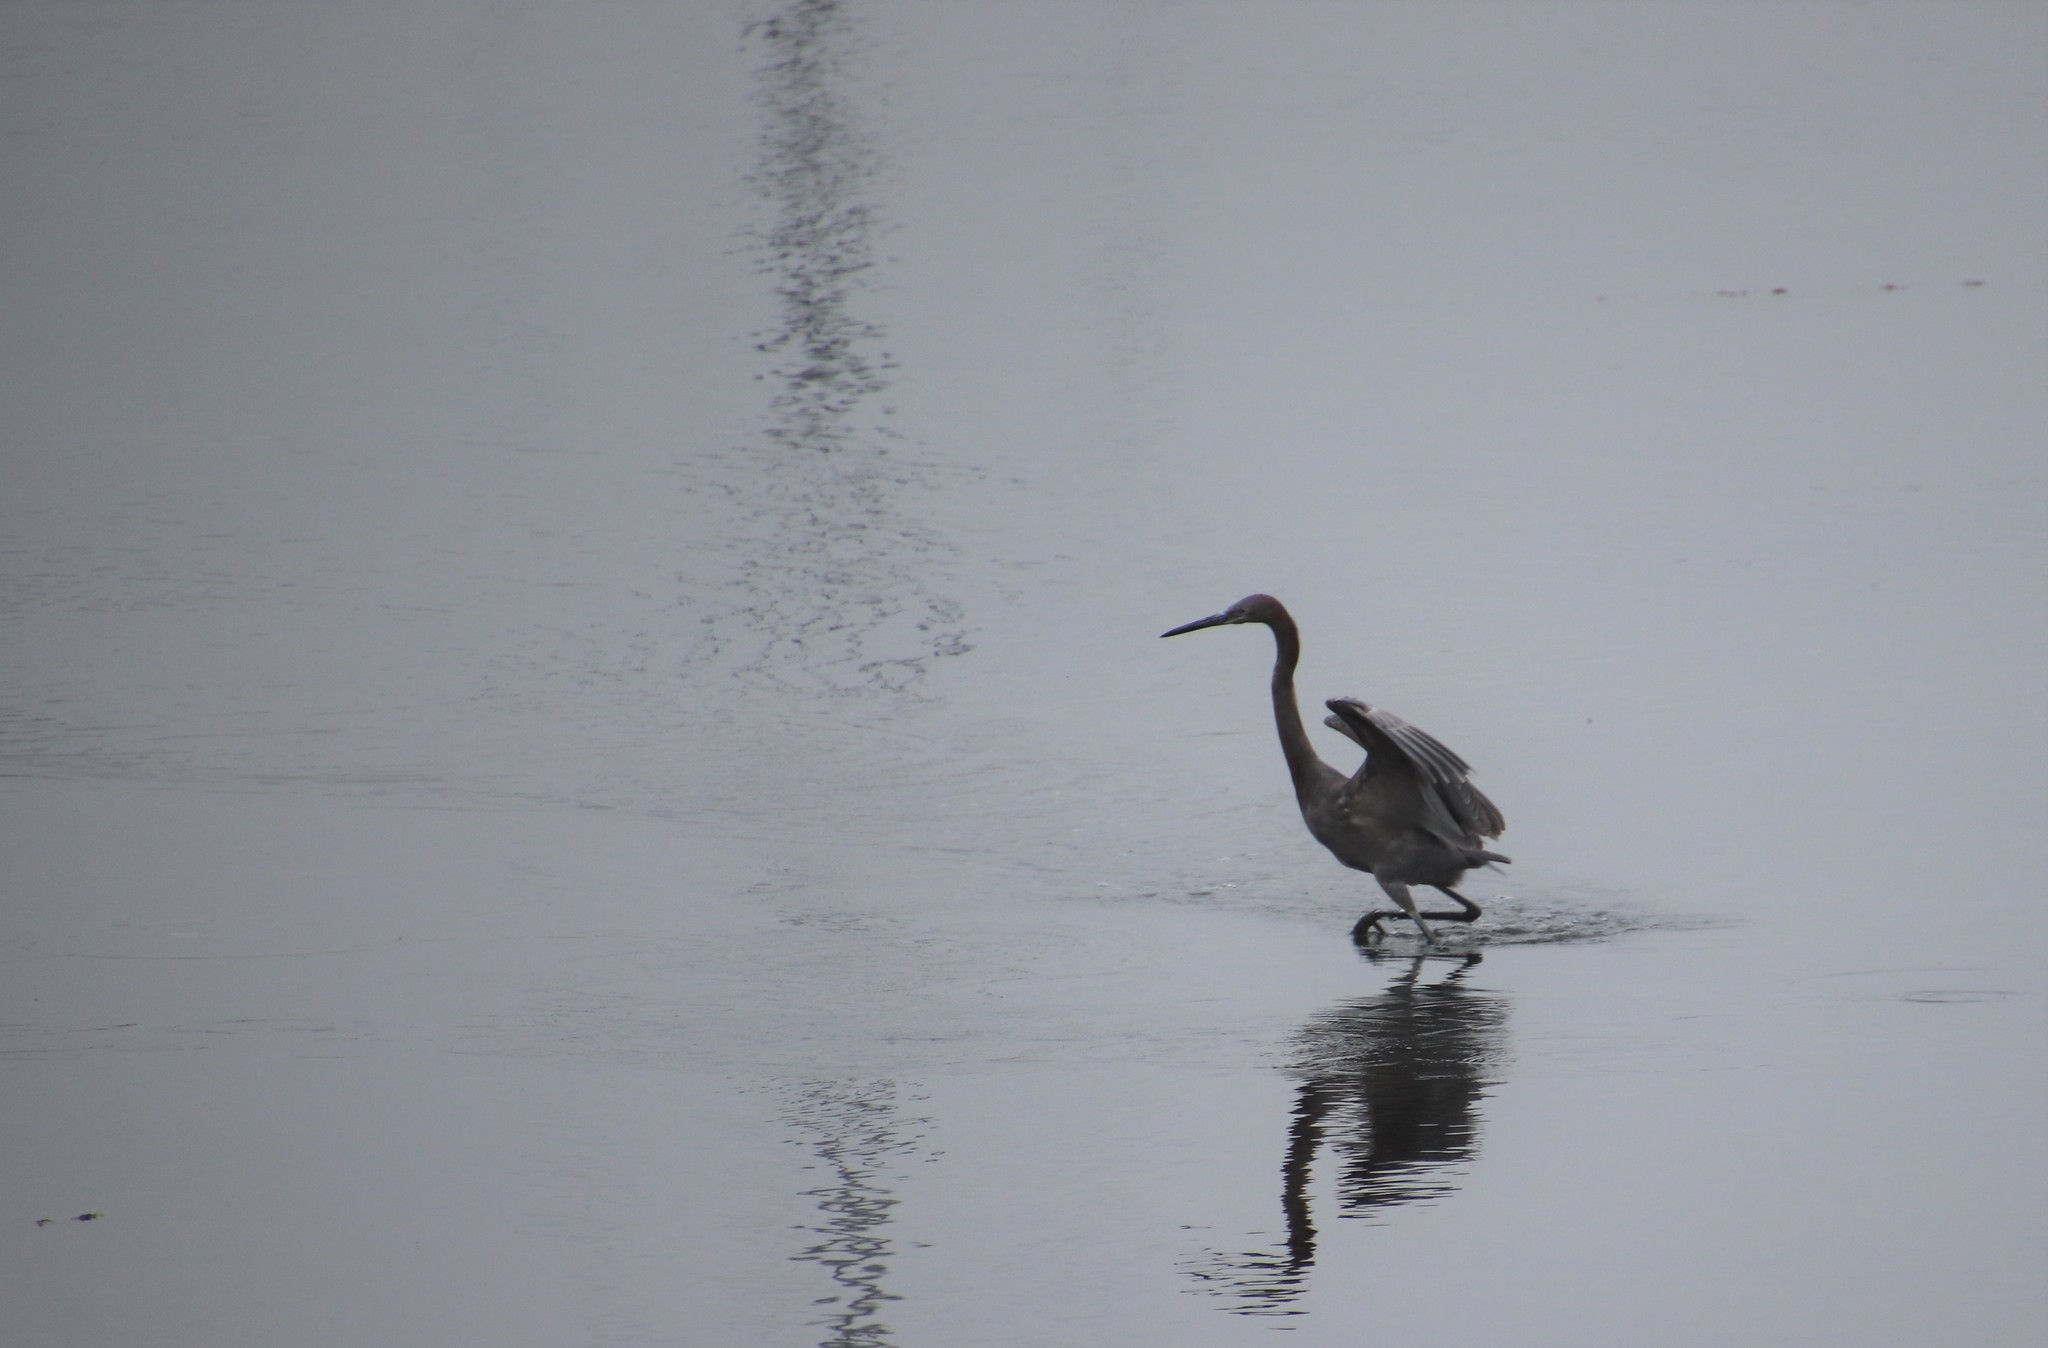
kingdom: Animalia
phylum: Chordata
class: Aves
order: Pelecaniformes
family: Ardeidae
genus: Egretta
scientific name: Egretta rufescens
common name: Reddish egret
